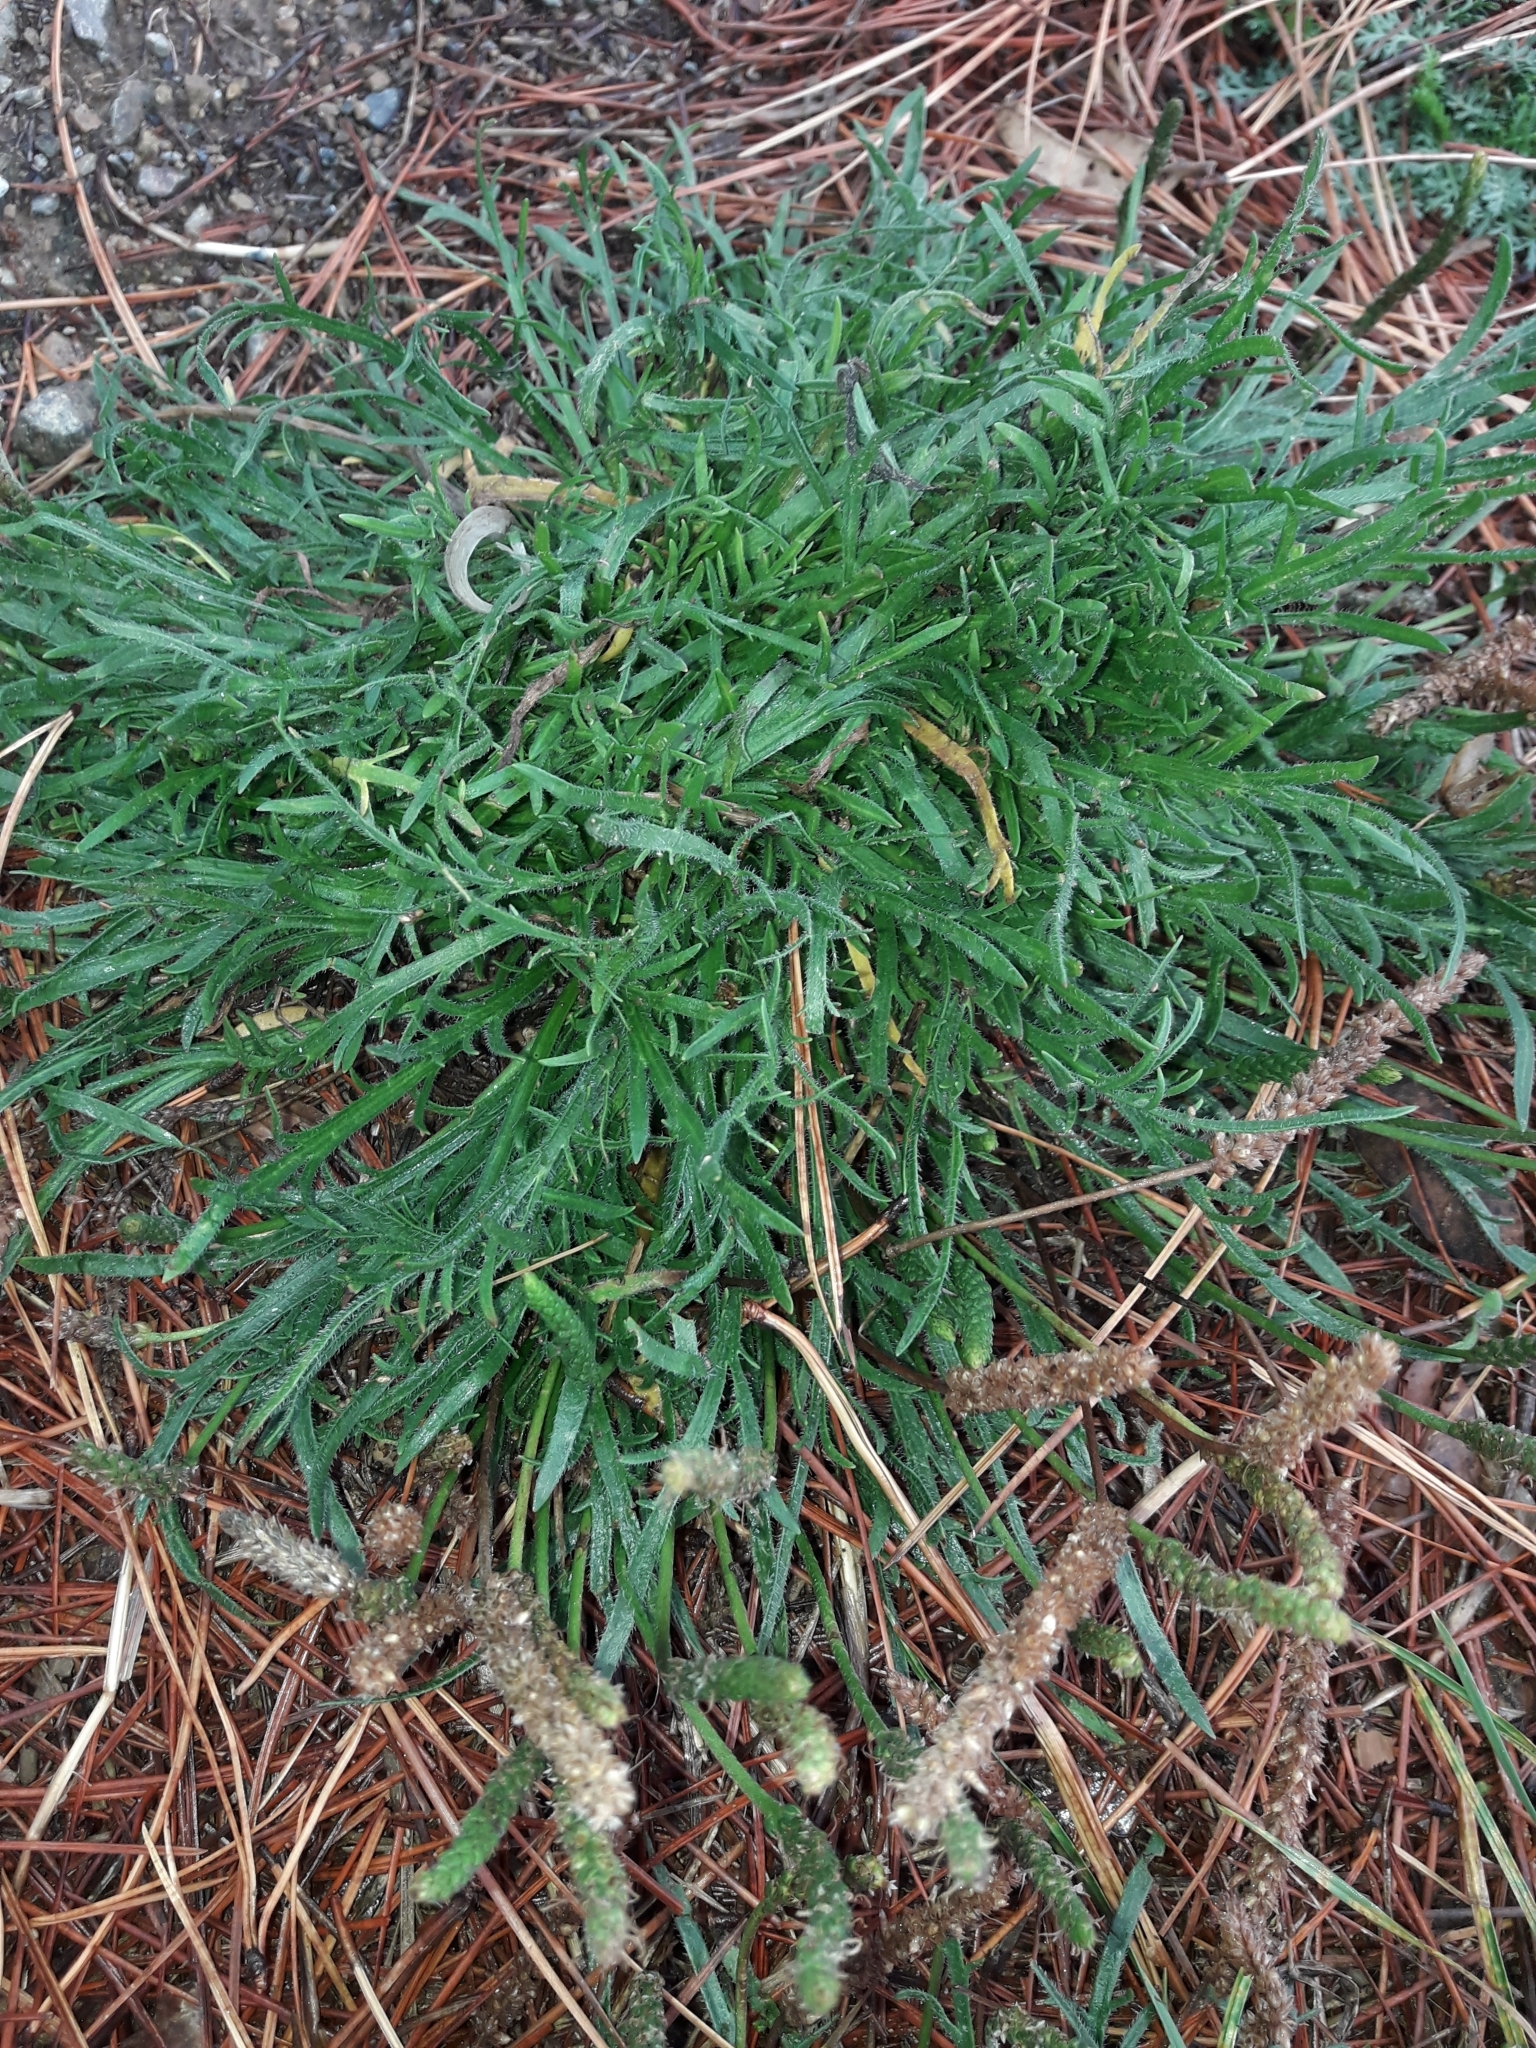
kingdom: Plantae
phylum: Tracheophyta
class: Magnoliopsida
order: Lamiales
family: Plantaginaceae
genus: Plantago
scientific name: Plantago coronopus
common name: Buck's-horn plantain
